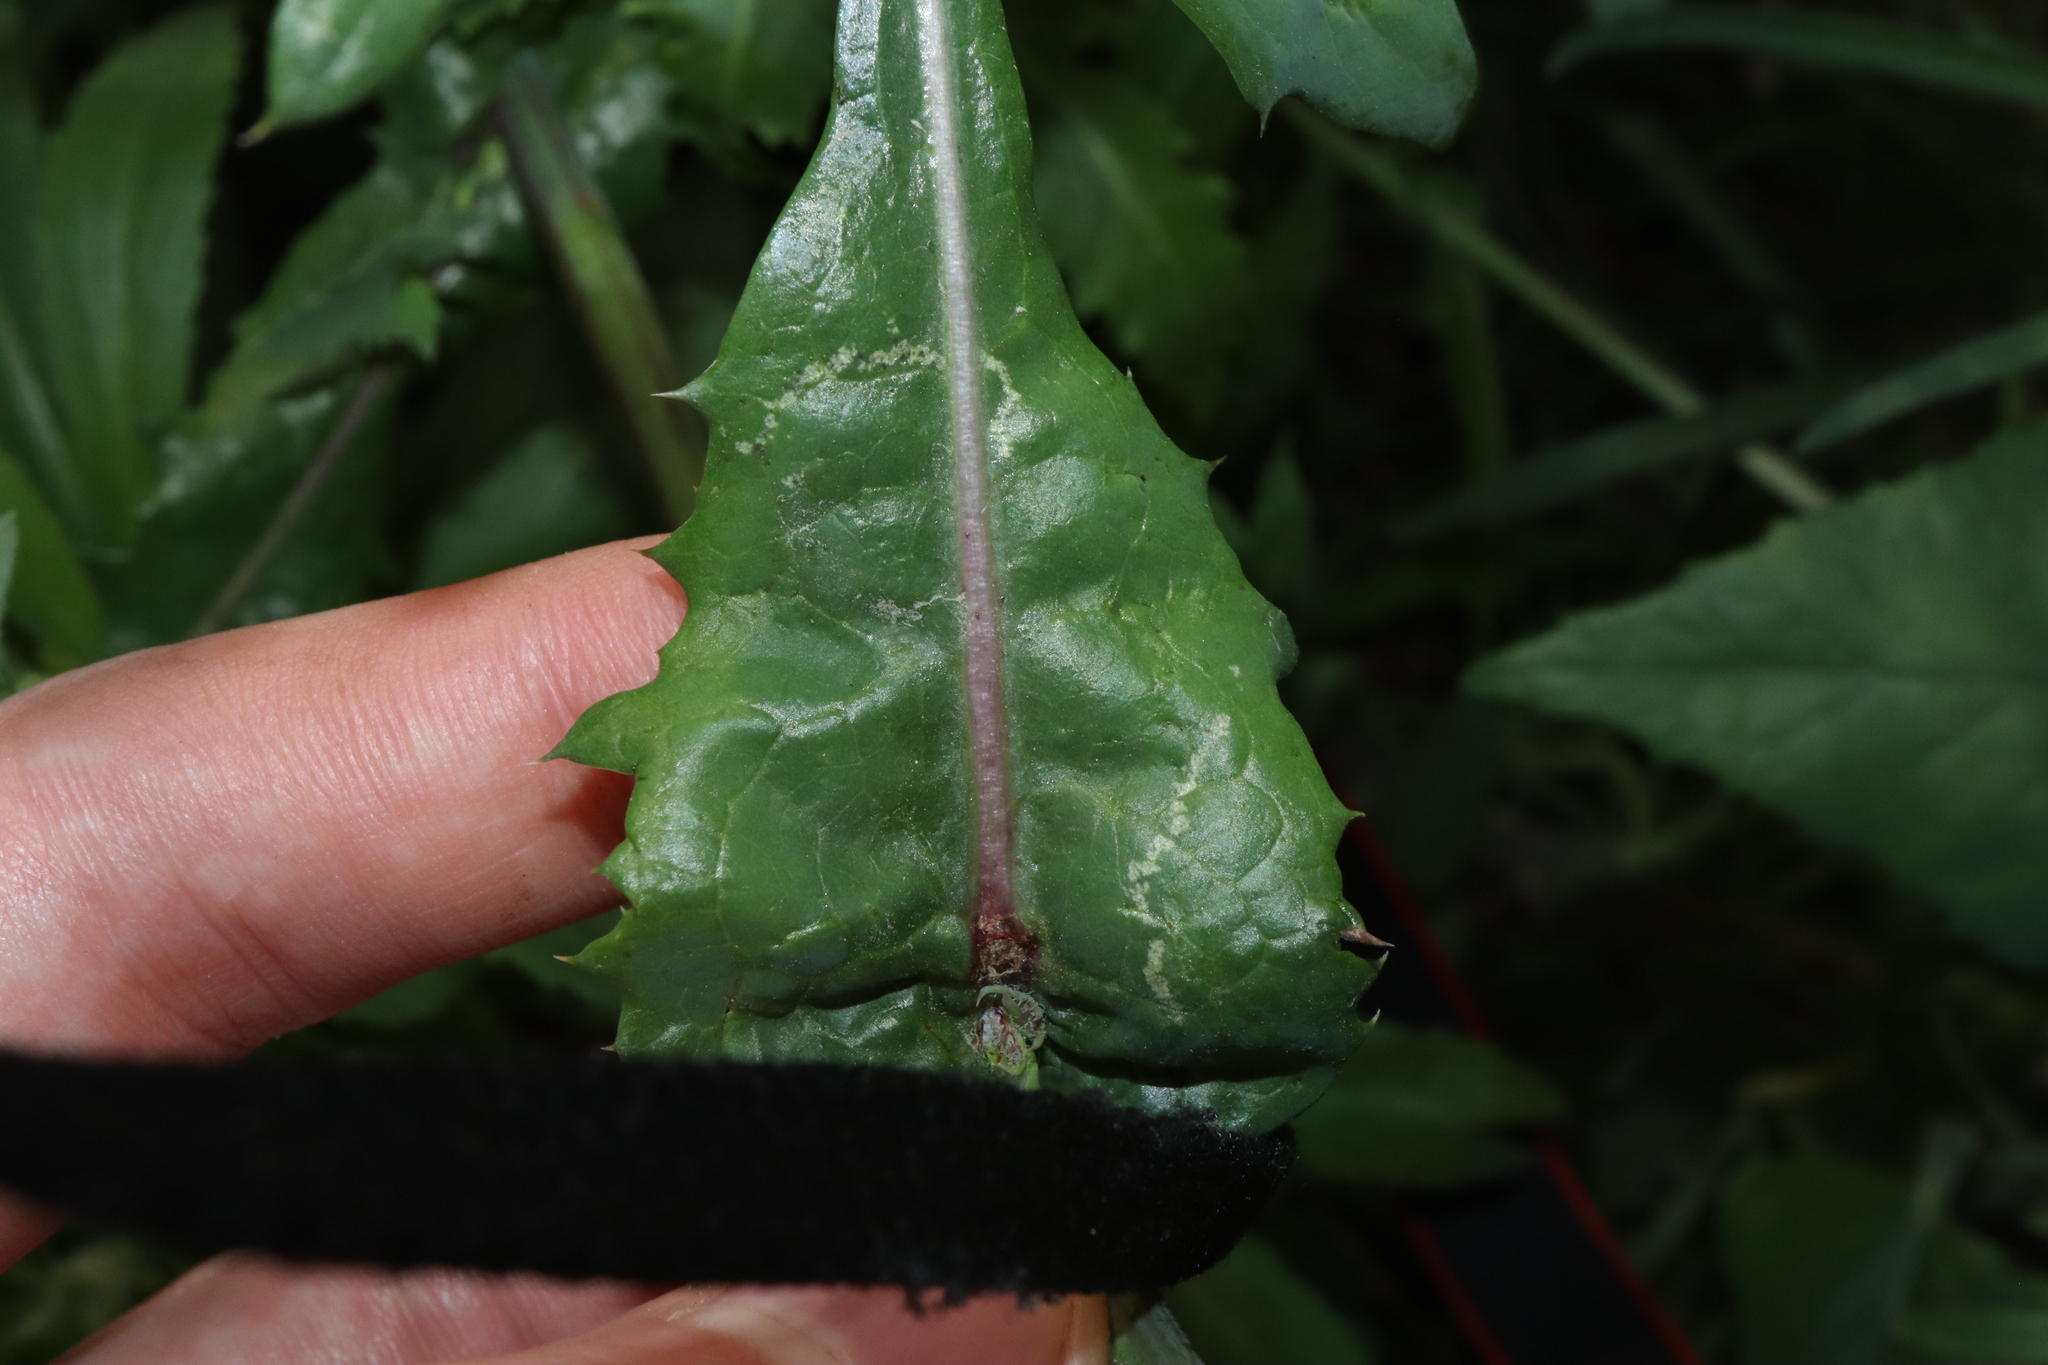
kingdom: Animalia
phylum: Arthropoda
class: Insecta
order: Diptera
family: Agromyzidae
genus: Phytomyza
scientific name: Phytomyza syngenesiae
